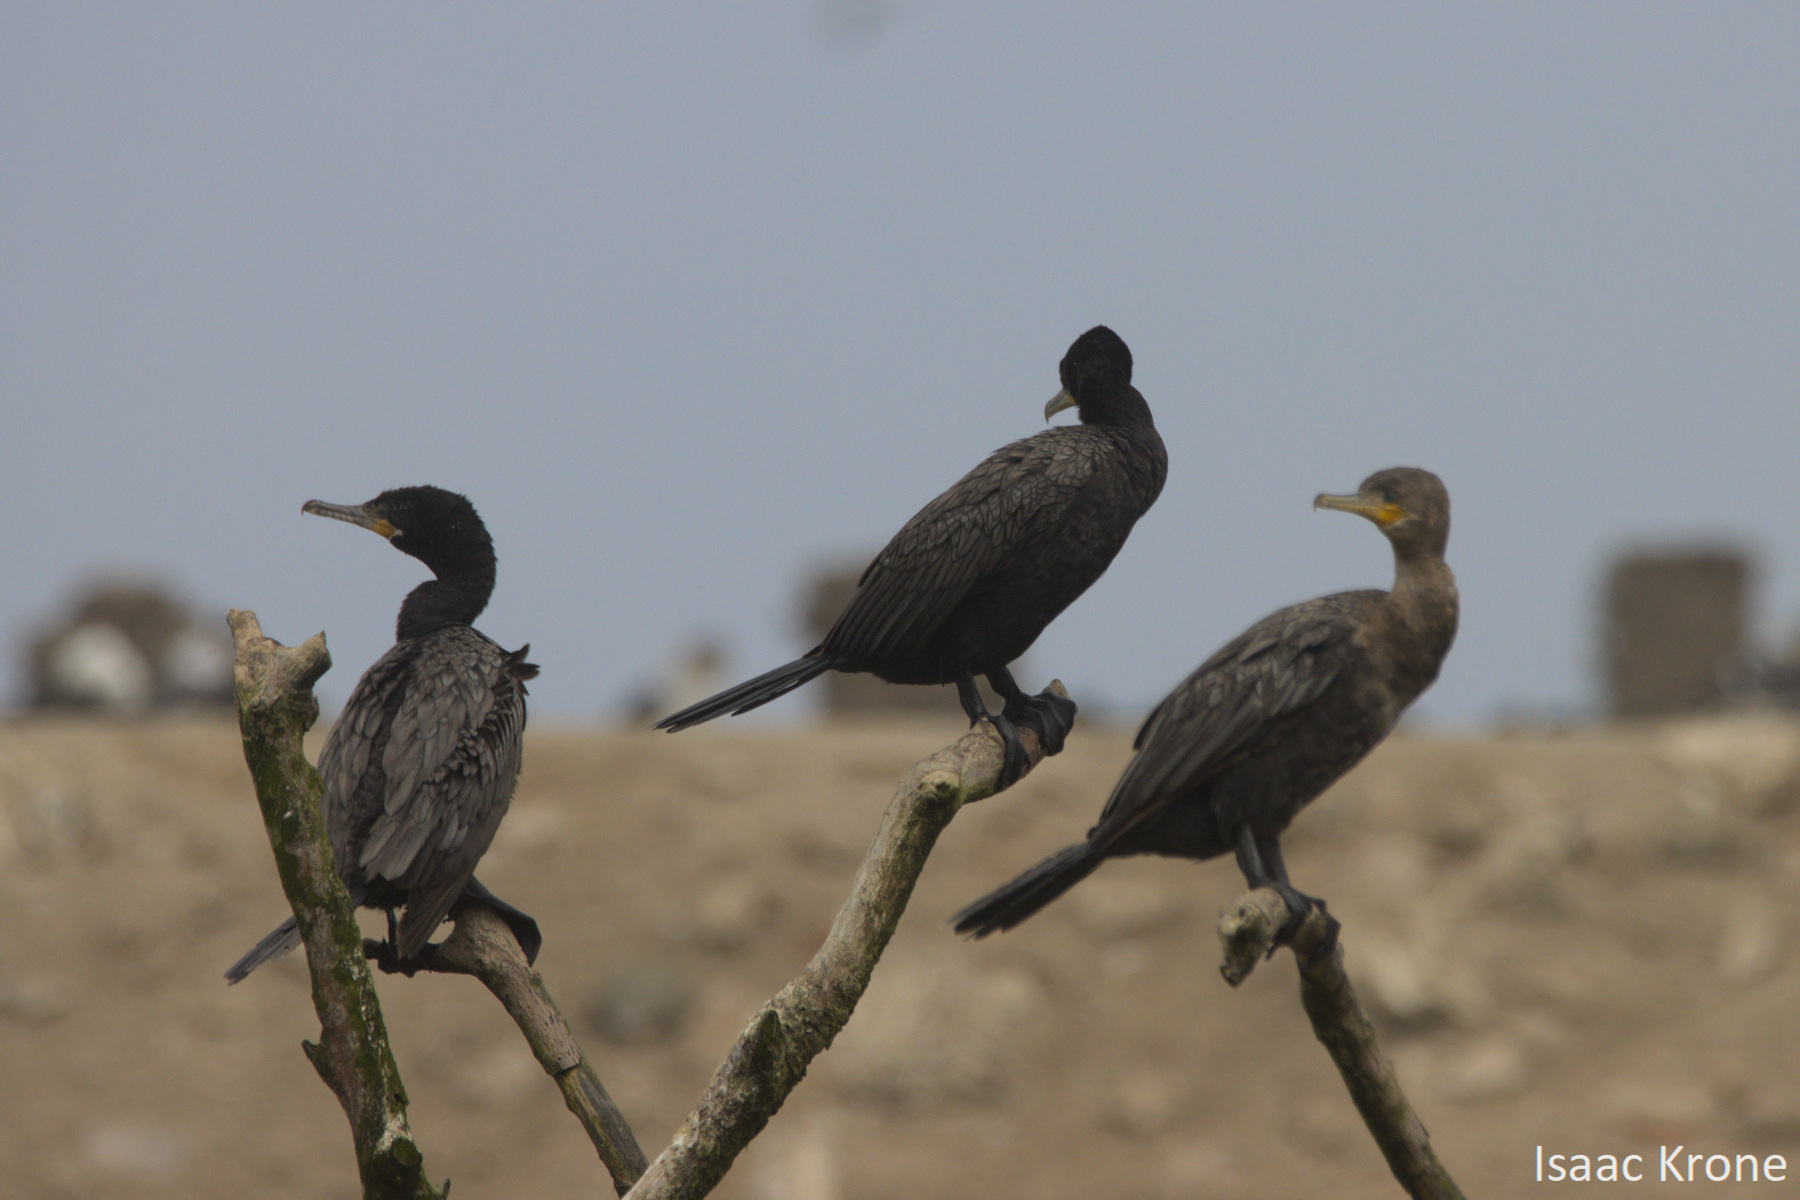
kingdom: Animalia
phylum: Chordata
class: Aves
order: Suliformes
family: Phalacrocoracidae
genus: Phalacrocorax
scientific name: Phalacrocorax brasilianus
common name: Neotropic cormorant
